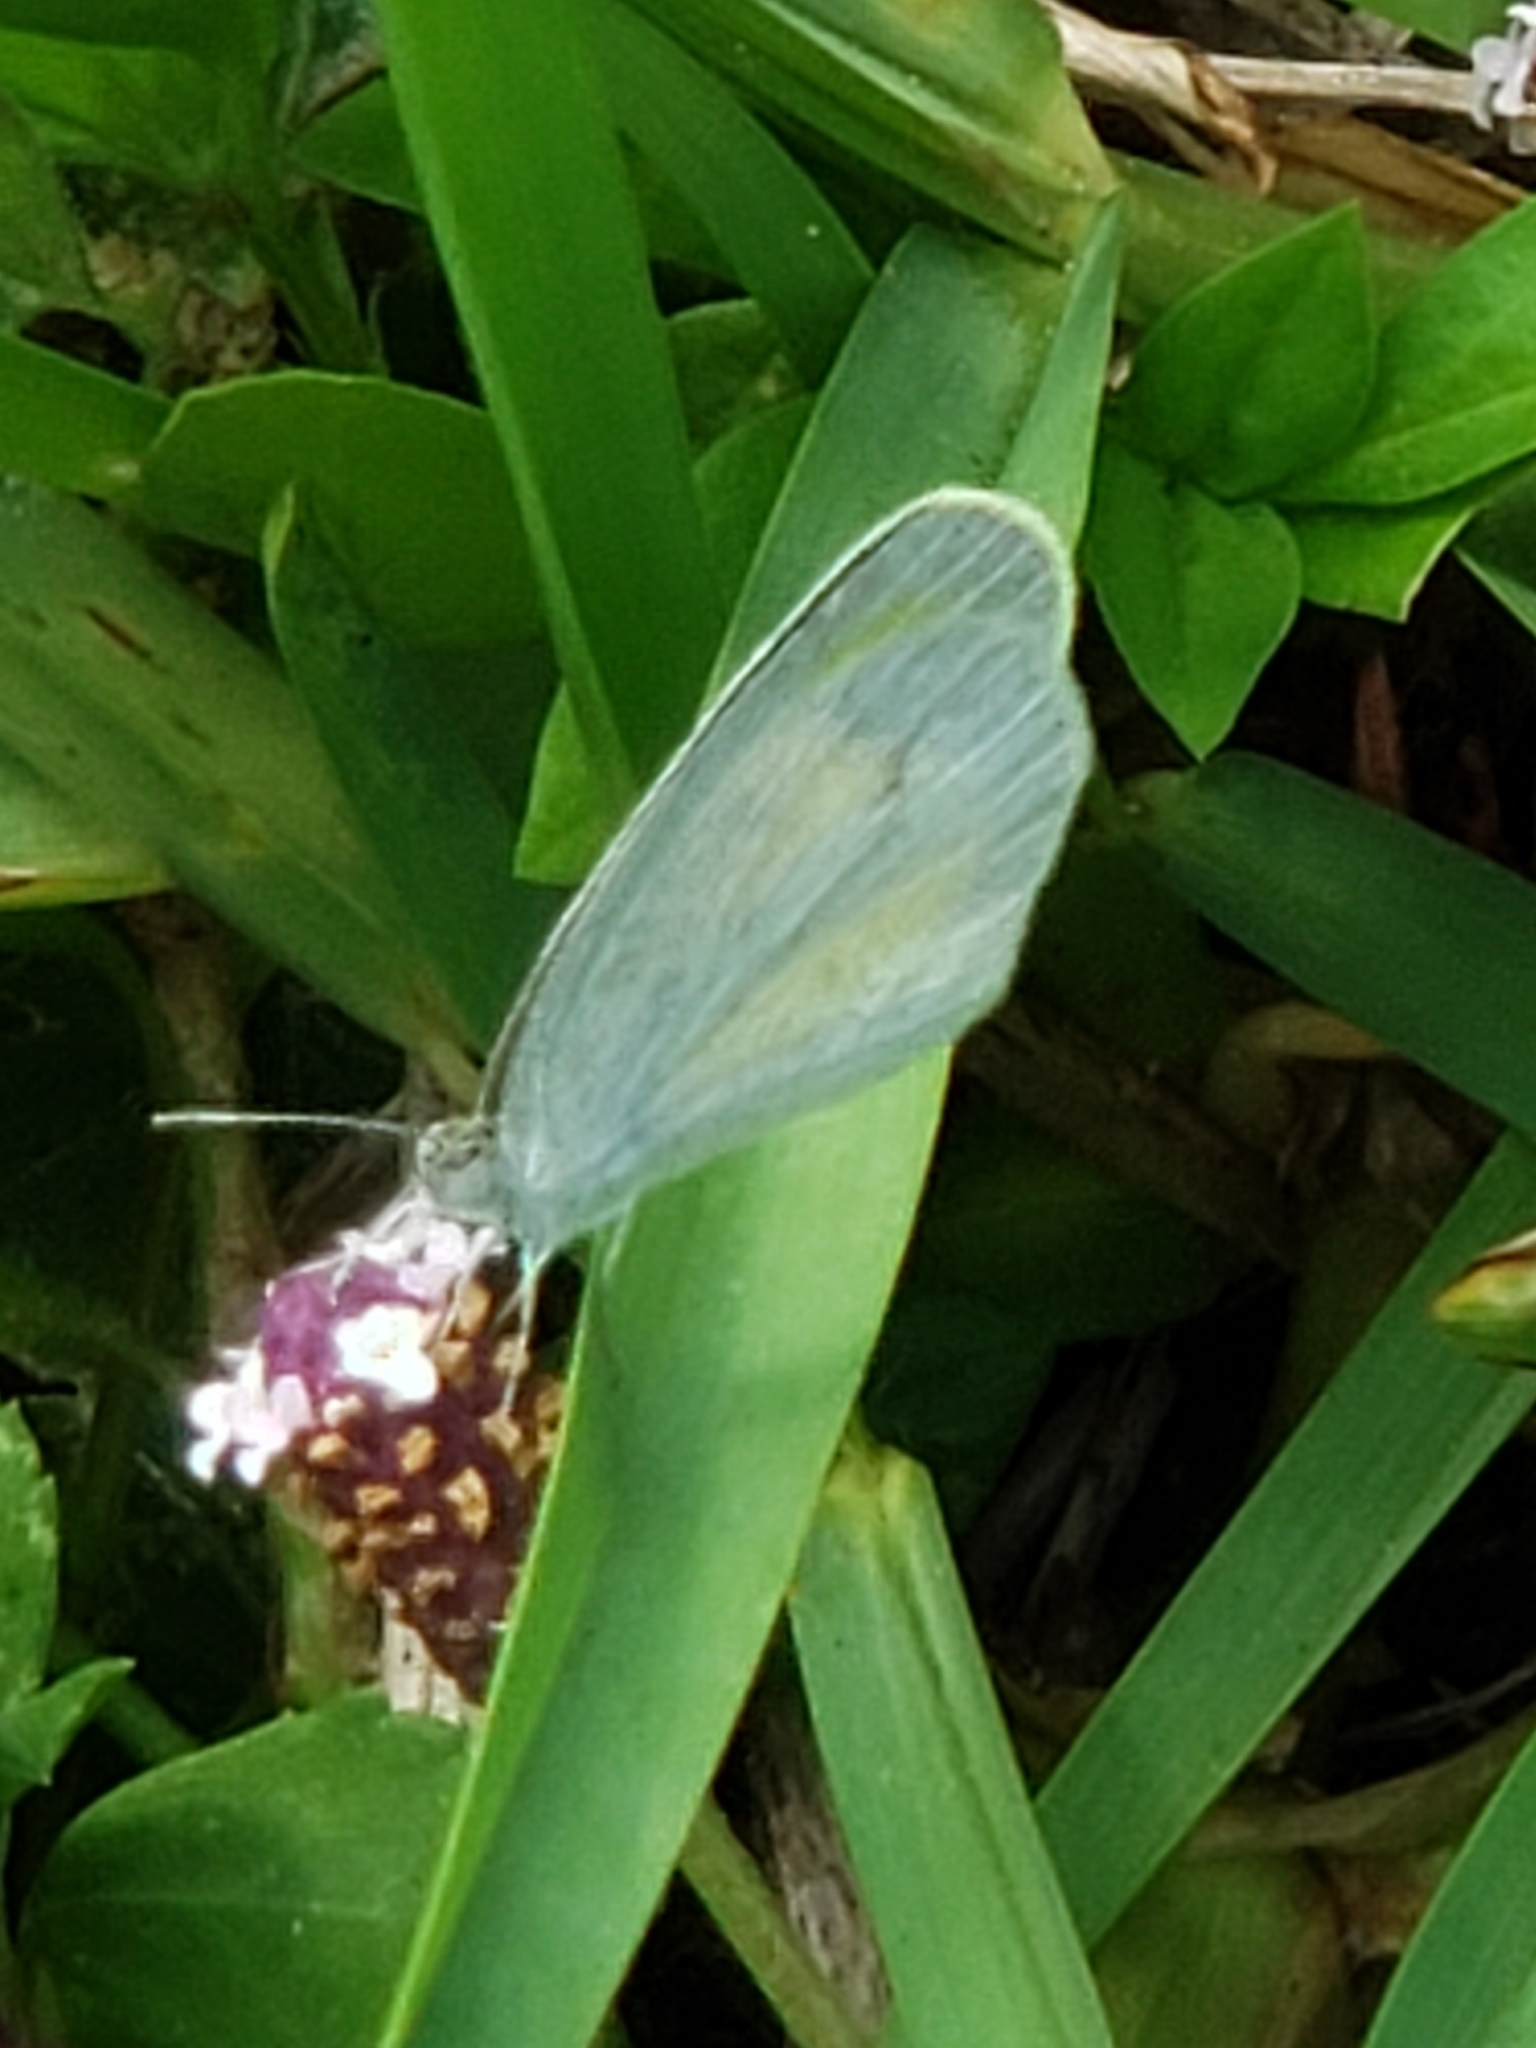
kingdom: Animalia
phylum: Arthropoda
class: Insecta
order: Lepidoptera
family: Pieridae
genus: Eurema
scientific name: Eurema daira
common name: Barred sulphur
